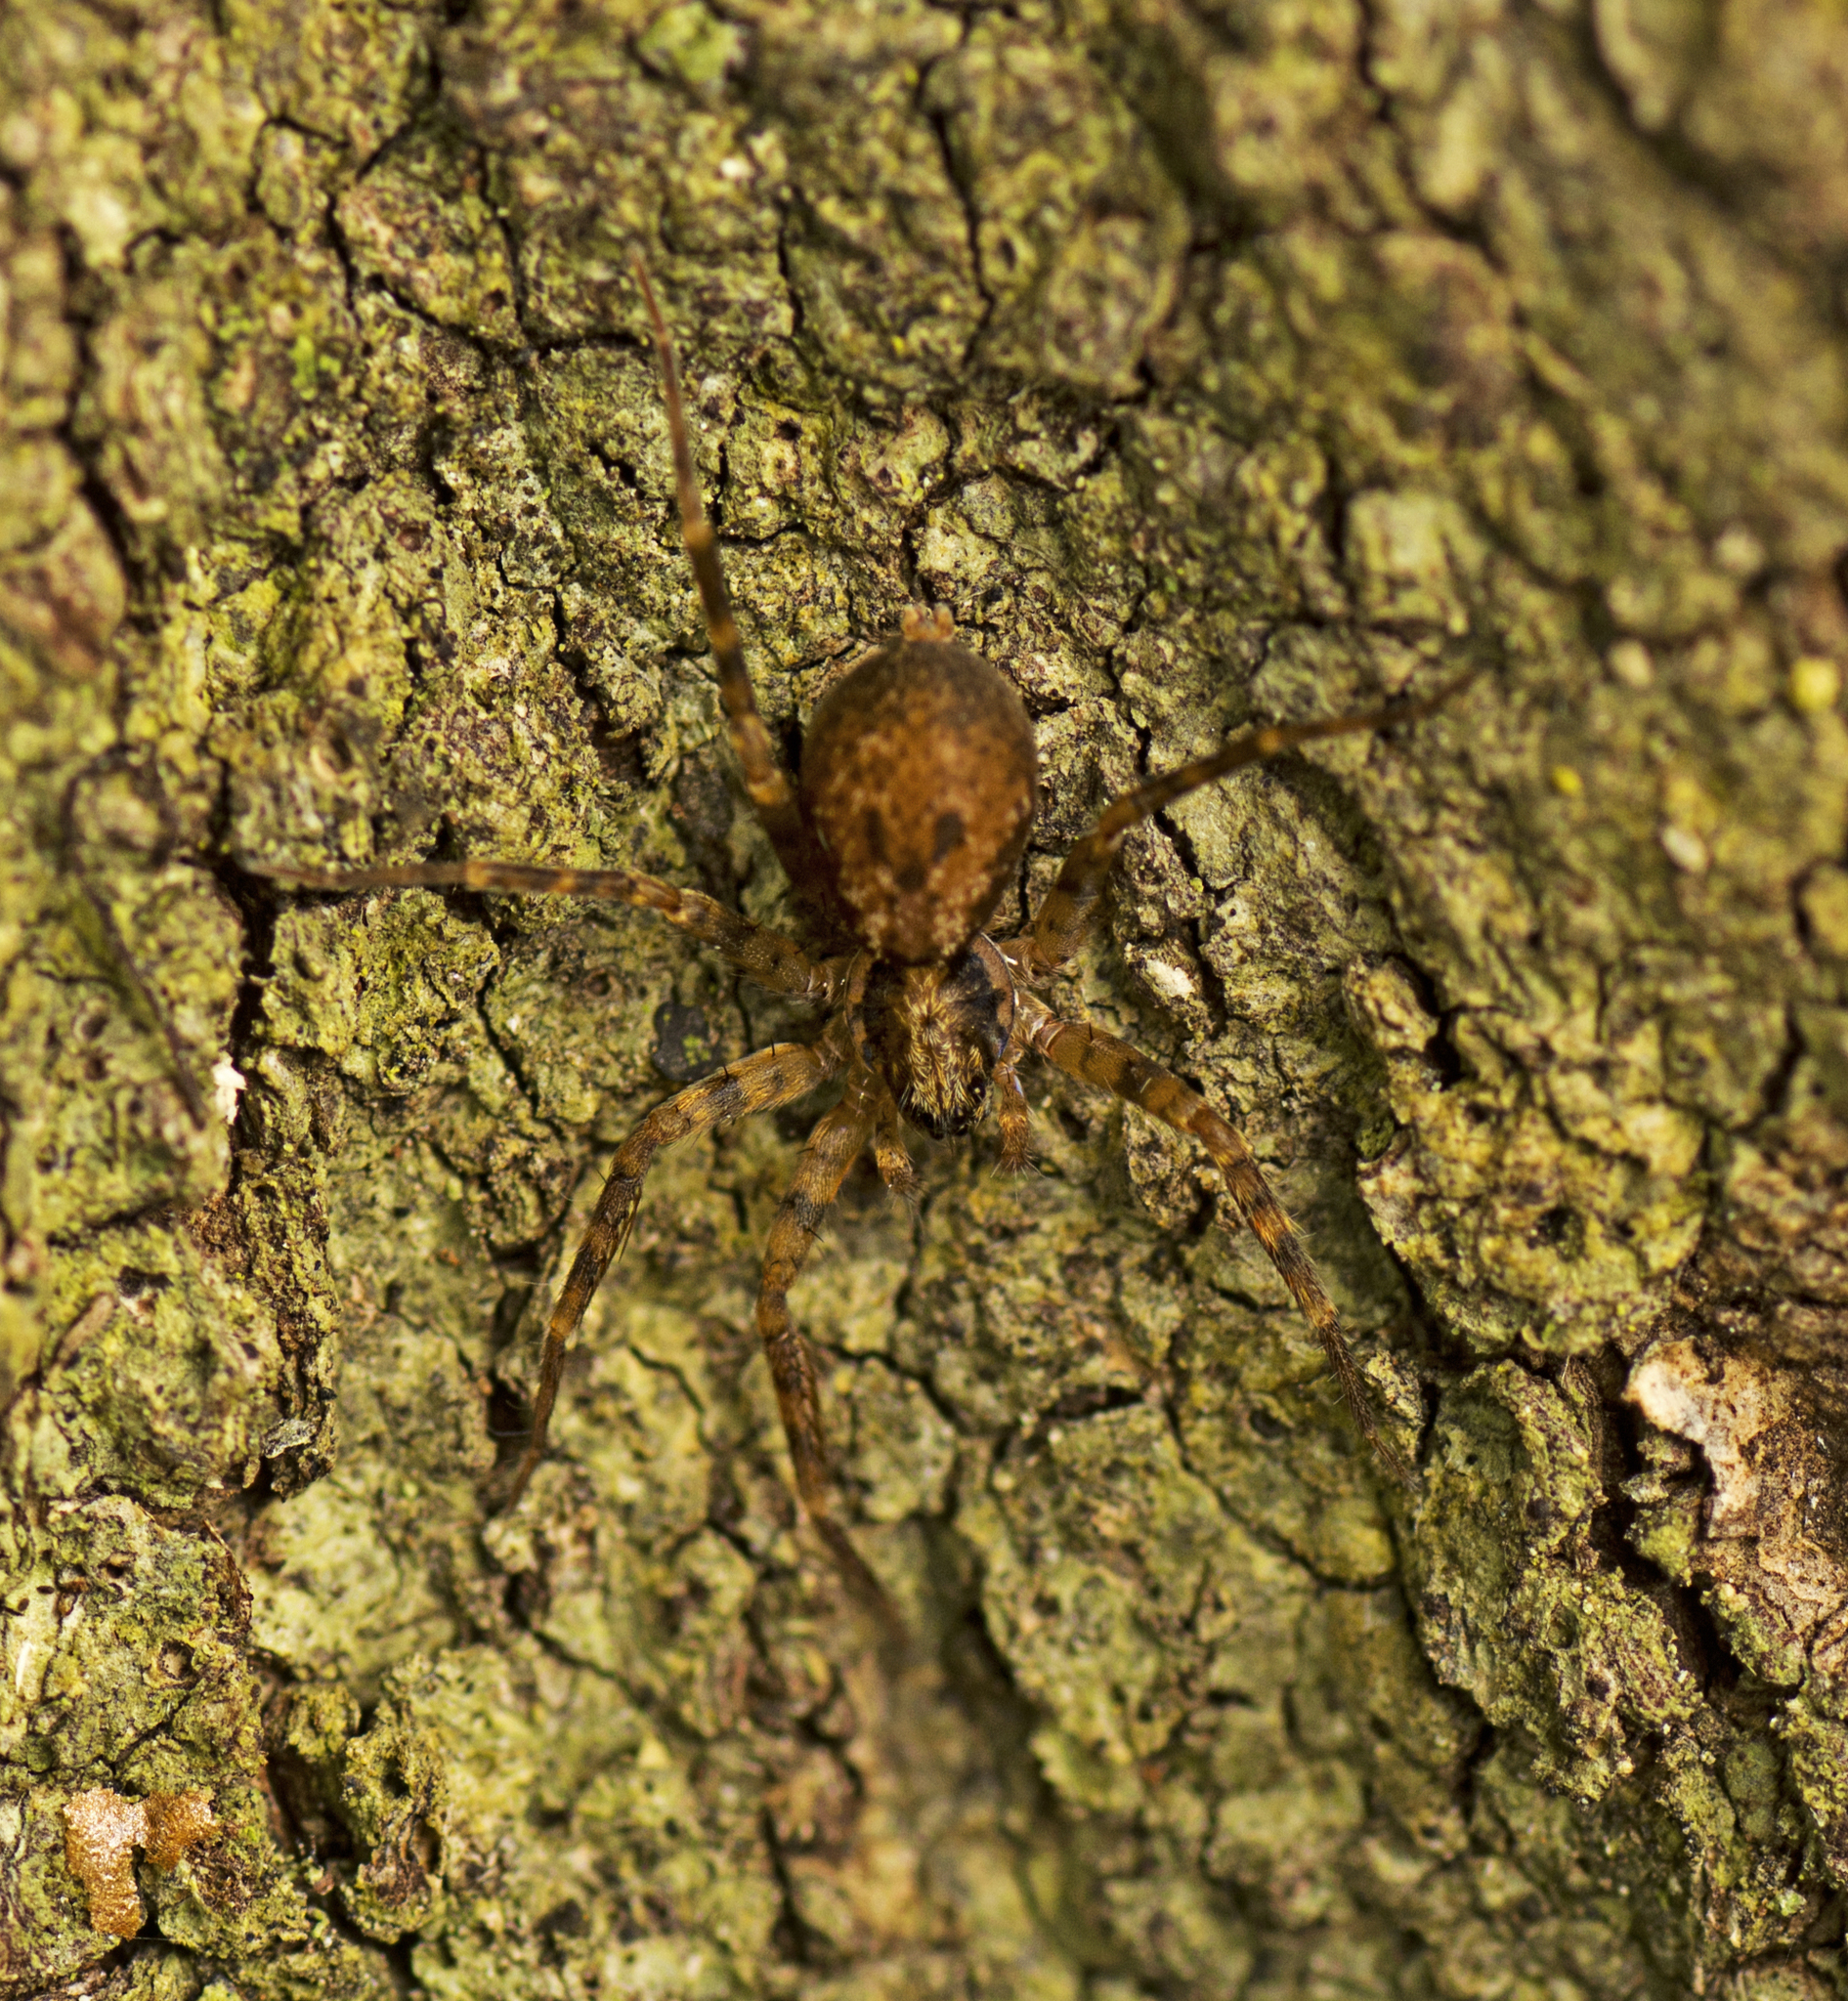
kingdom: Animalia
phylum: Arthropoda
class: Arachnida
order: Araneae
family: Toxopidae
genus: Toxopsoides
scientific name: Toxopsoides erici
